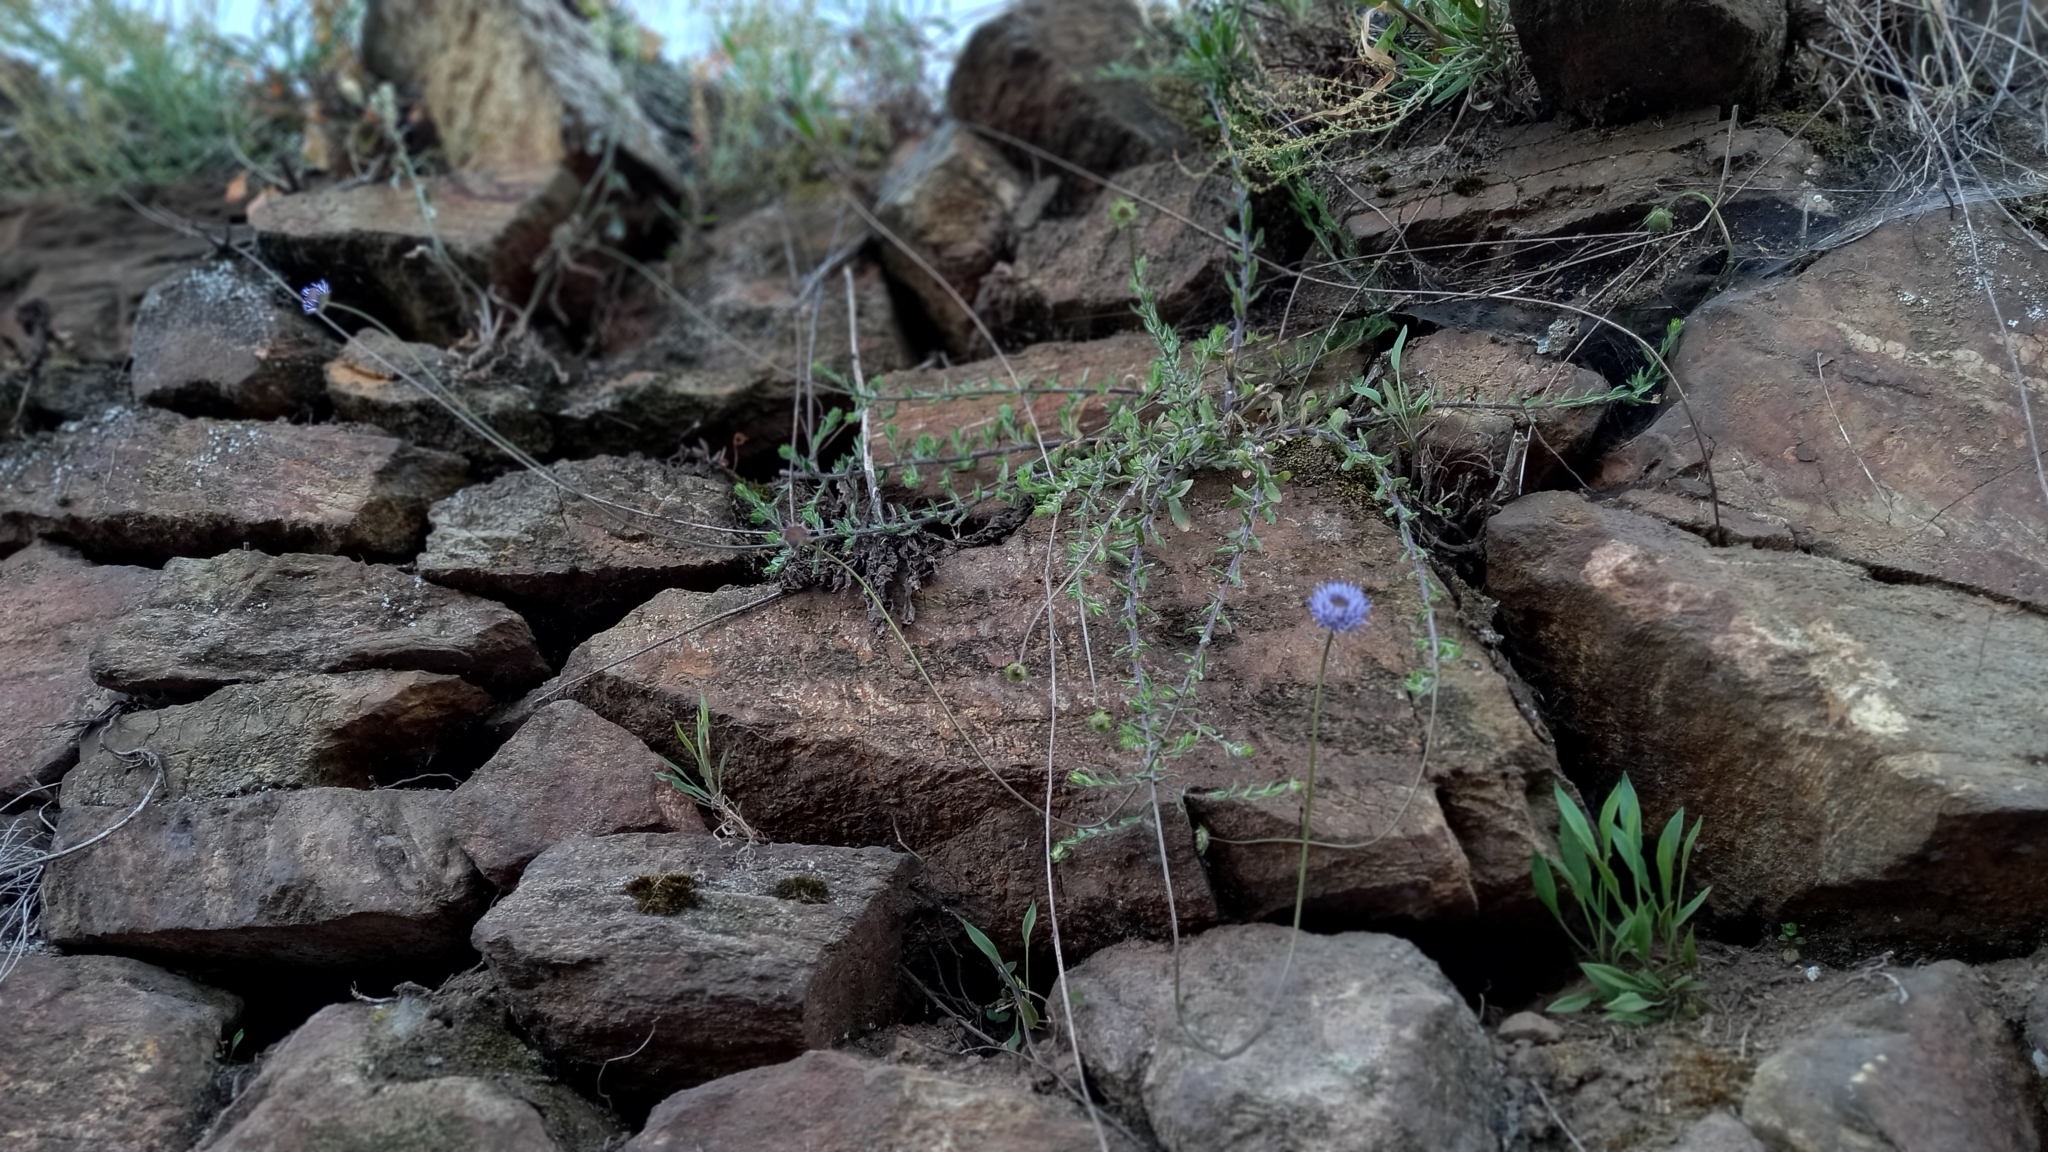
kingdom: Plantae
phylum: Tracheophyta
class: Magnoliopsida
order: Asterales
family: Campanulaceae
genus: Jasione
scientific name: Jasione montana
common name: Sheep's-bit
